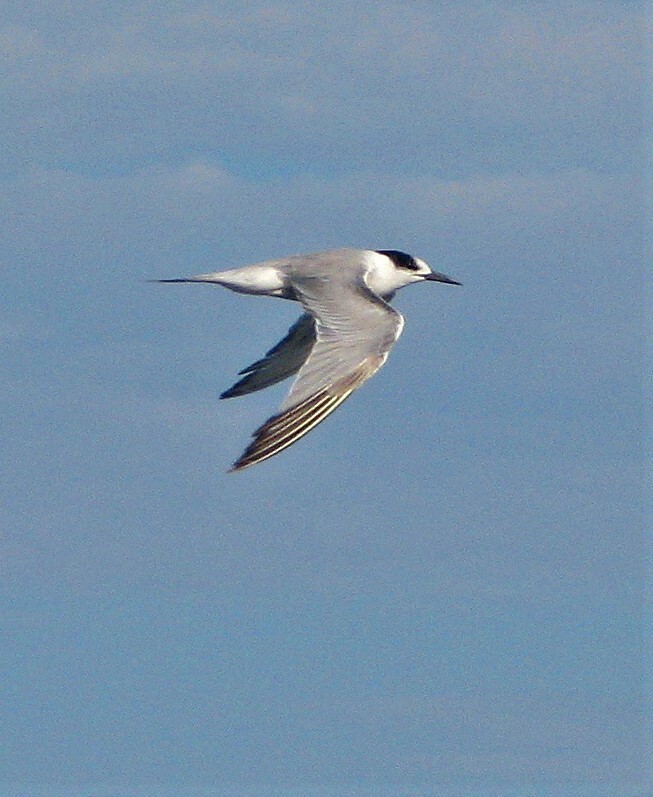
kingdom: Animalia
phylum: Chordata
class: Aves
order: Charadriiformes
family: Laridae
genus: Sterna
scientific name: Sterna hirundo
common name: Common tern
